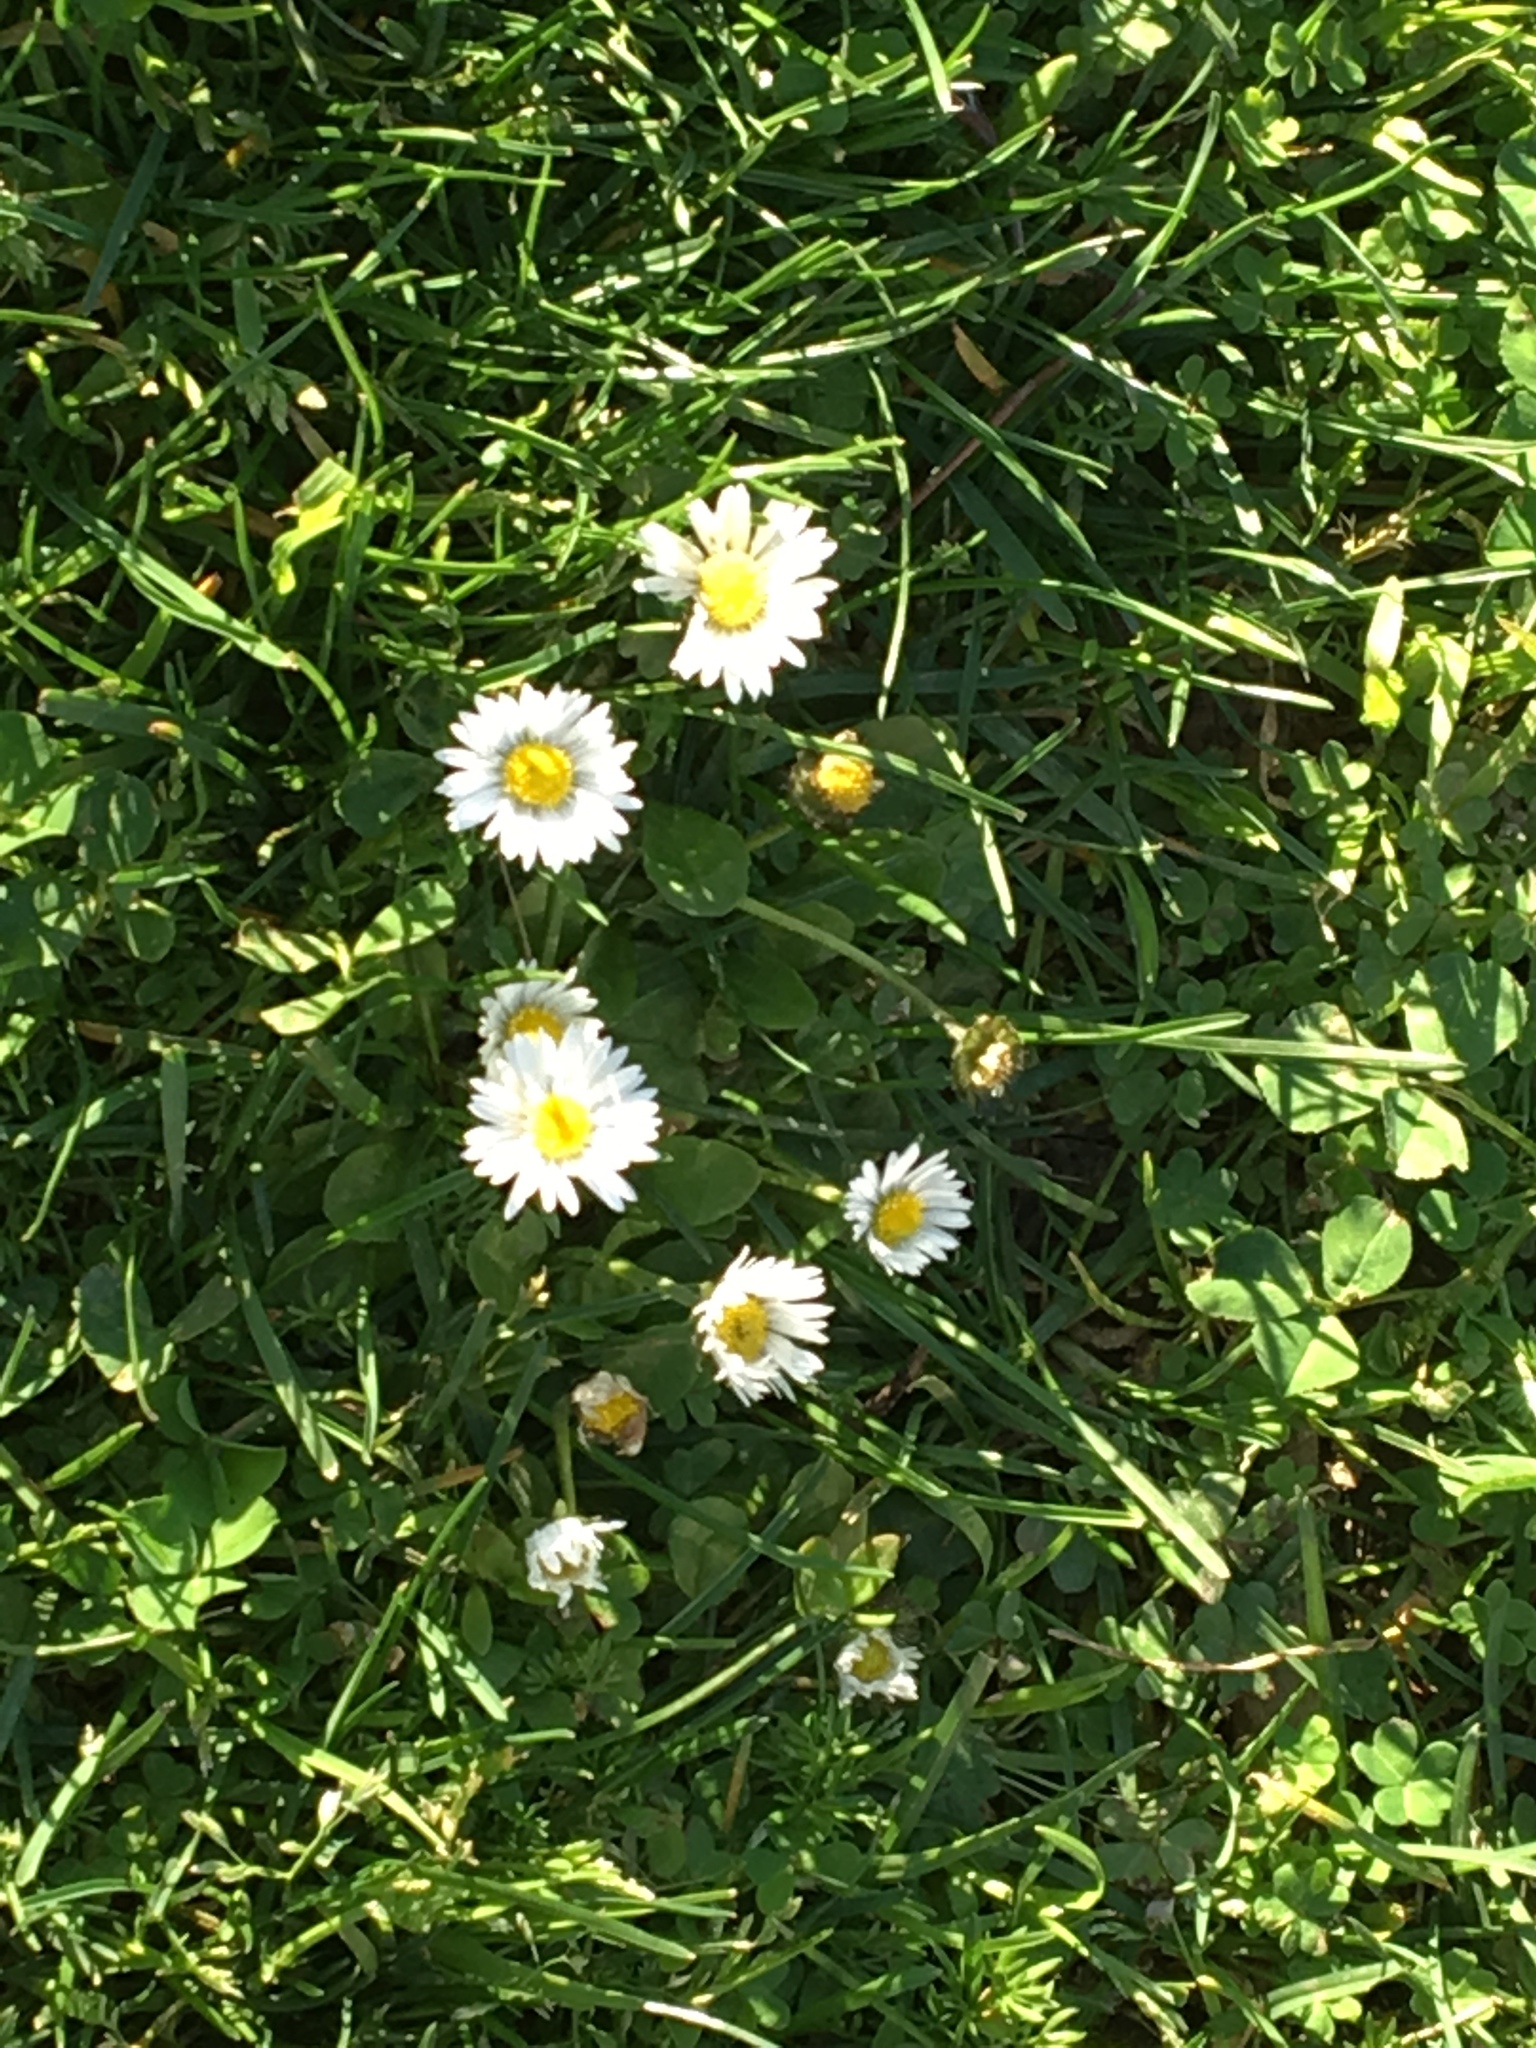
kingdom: Plantae
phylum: Tracheophyta
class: Magnoliopsida
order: Asterales
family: Asteraceae
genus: Bellis
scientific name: Bellis perennis
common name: Lawndaisy
